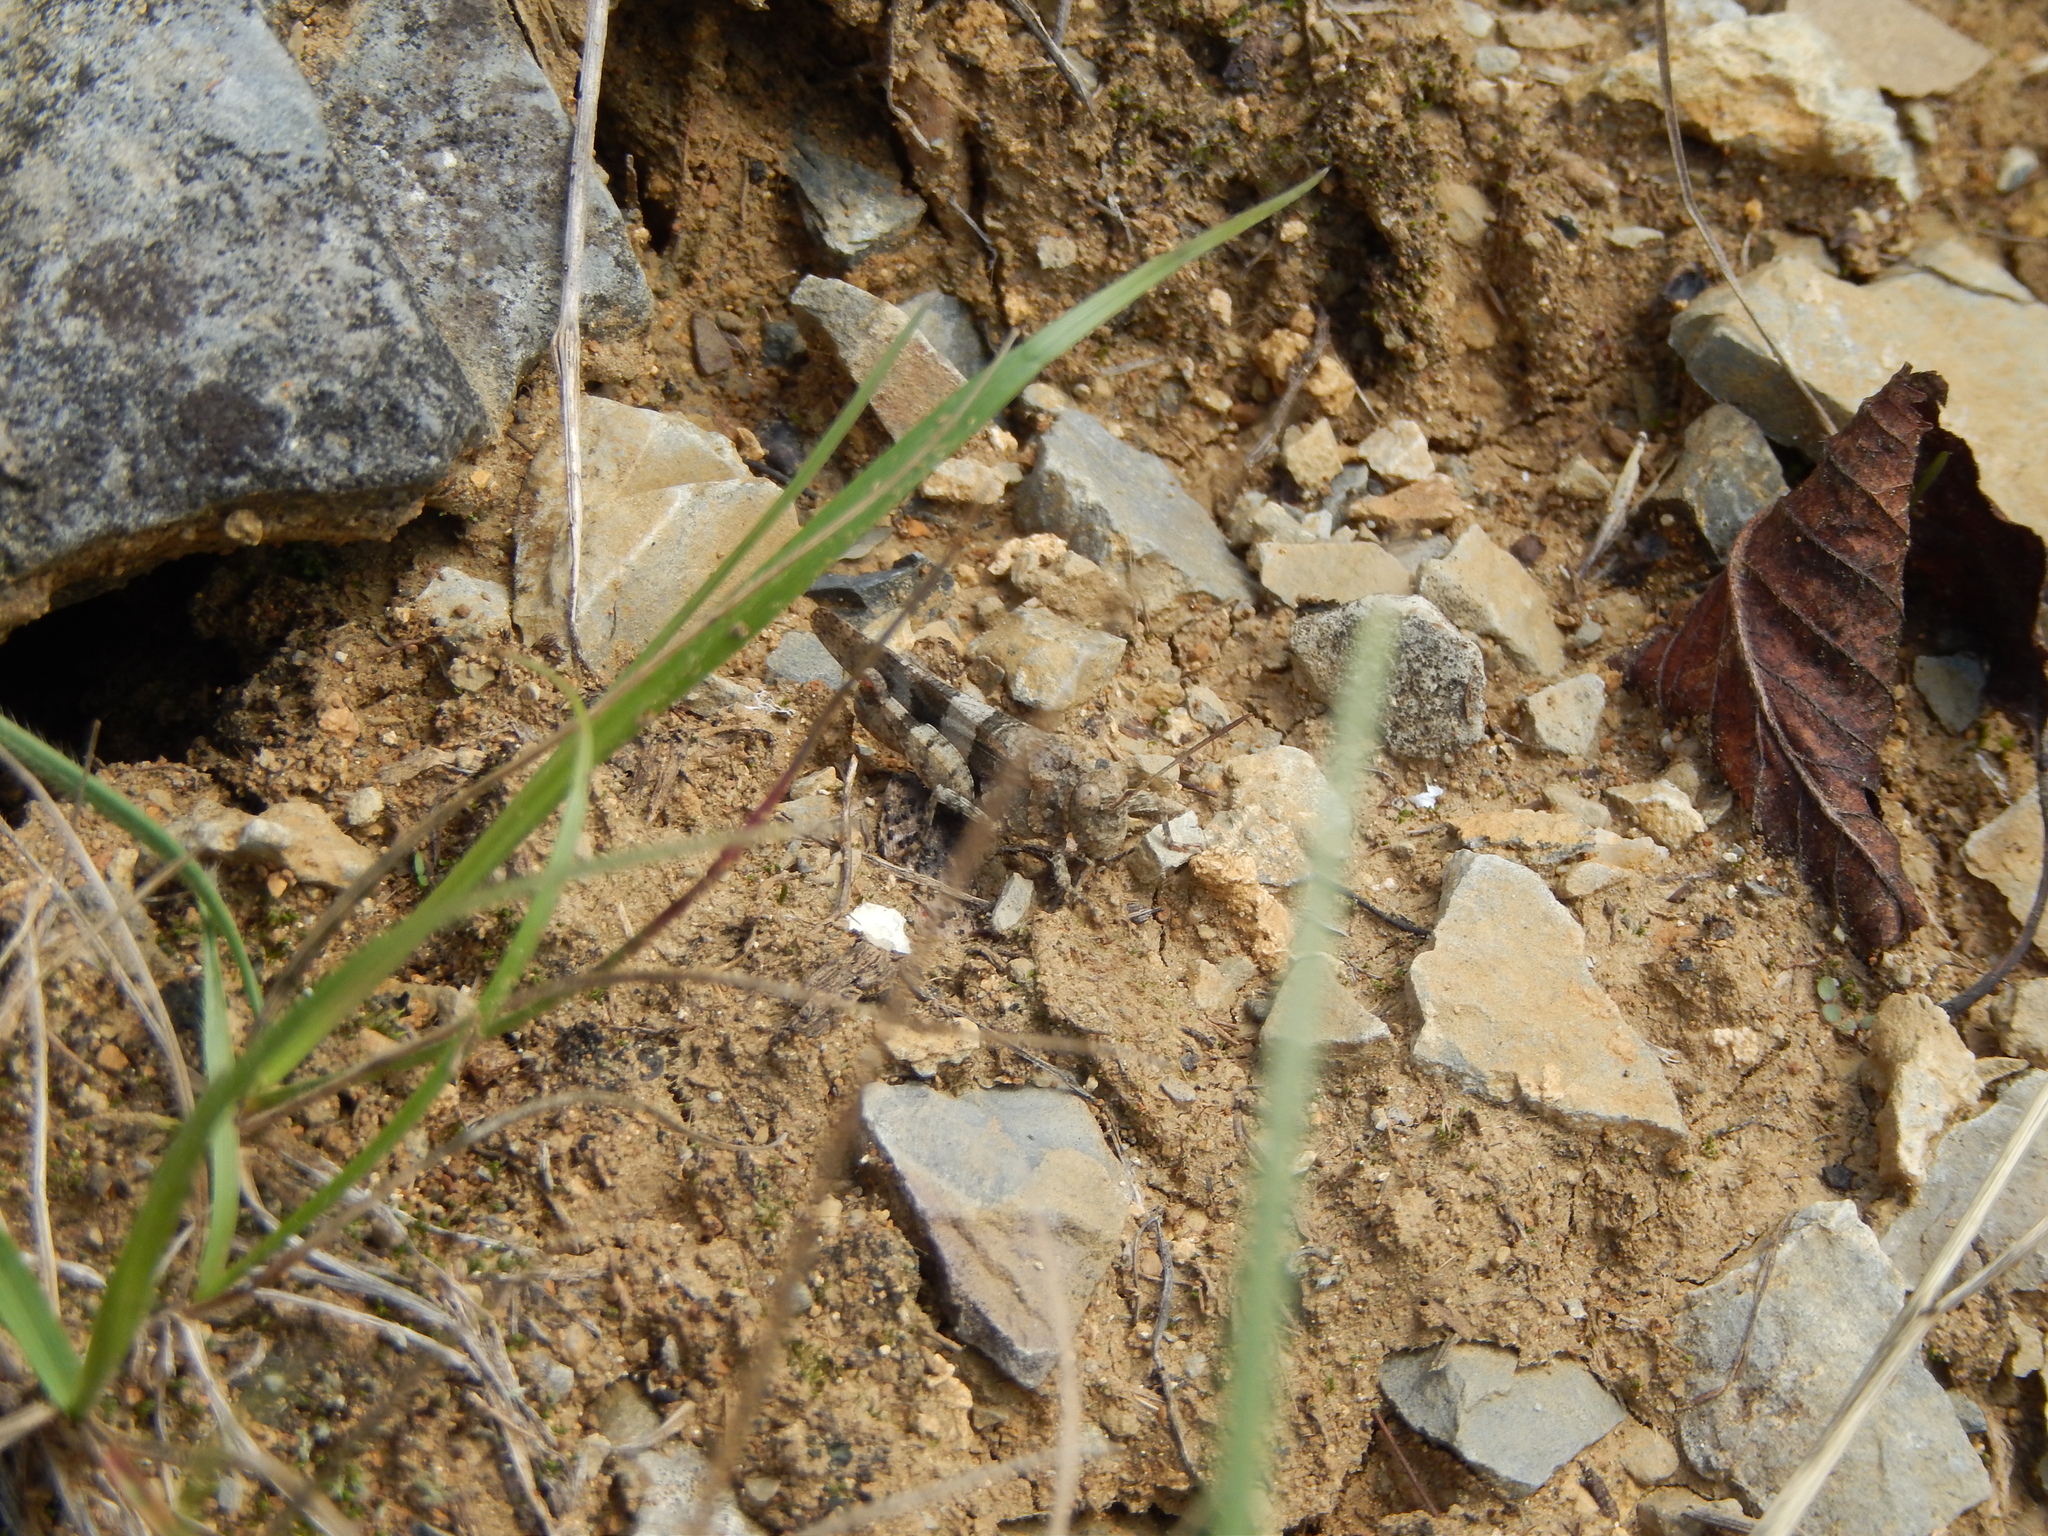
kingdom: Animalia
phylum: Arthropoda
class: Insecta
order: Orthoptera
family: Acrididae
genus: Oedipoda
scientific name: Oedipoda caerulescens
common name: Blue-winged grasshopper
